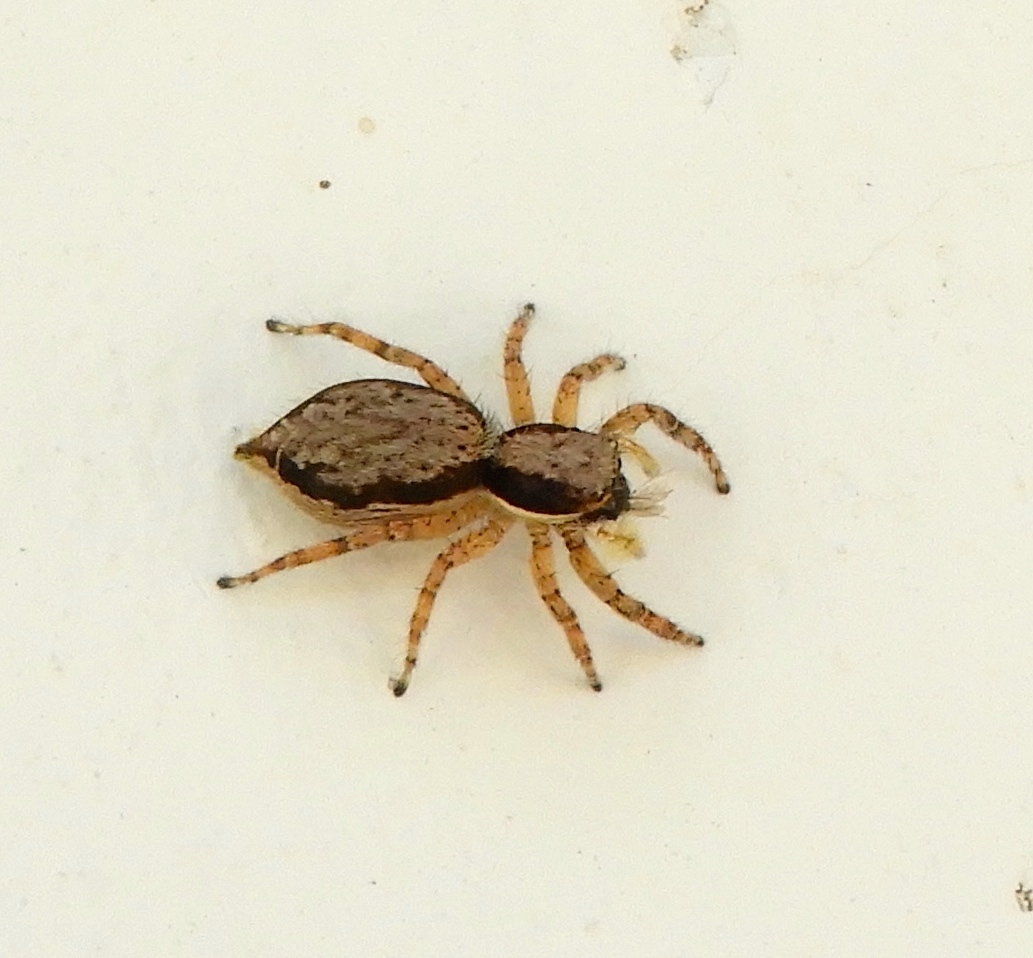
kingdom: Animalia
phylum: Arthropoda
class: Arachnida
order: Araneae
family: Salticidae
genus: Menemerus
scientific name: Menemerus bivittatus
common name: Gray wall jumper
